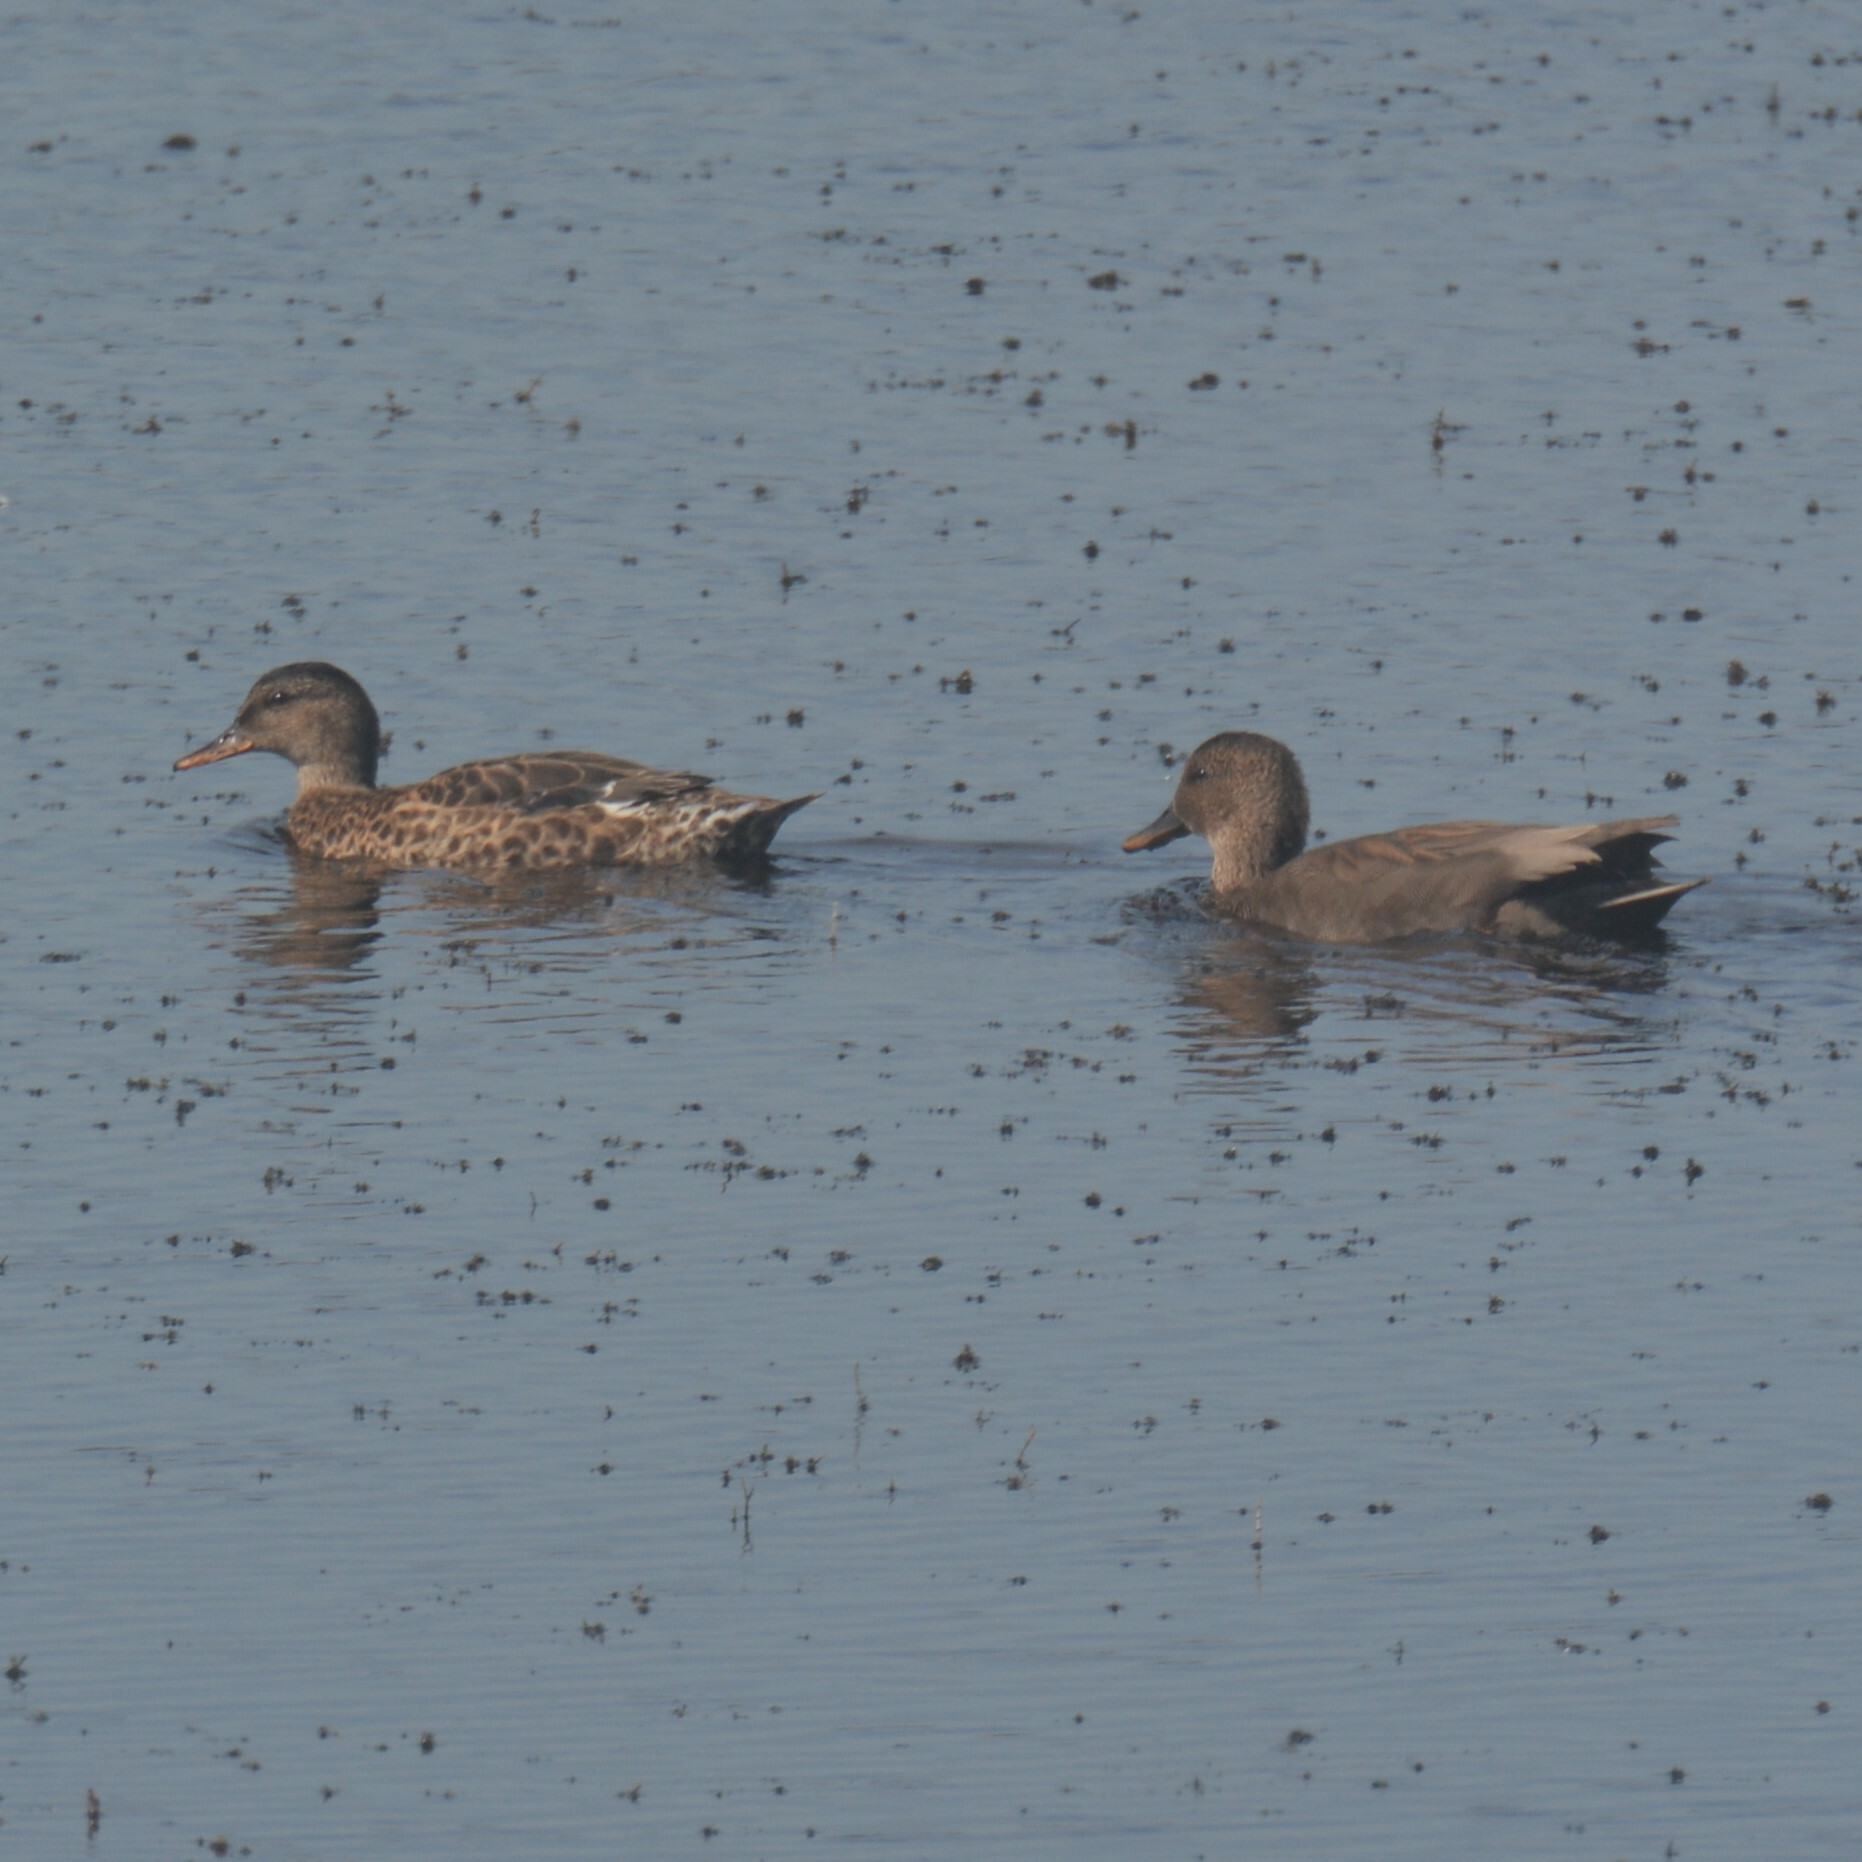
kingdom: Animalia
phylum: Chordata
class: Aves
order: Anseriformes
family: Anatidae
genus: Mareca
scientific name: Mareca strepera
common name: Gadwall
